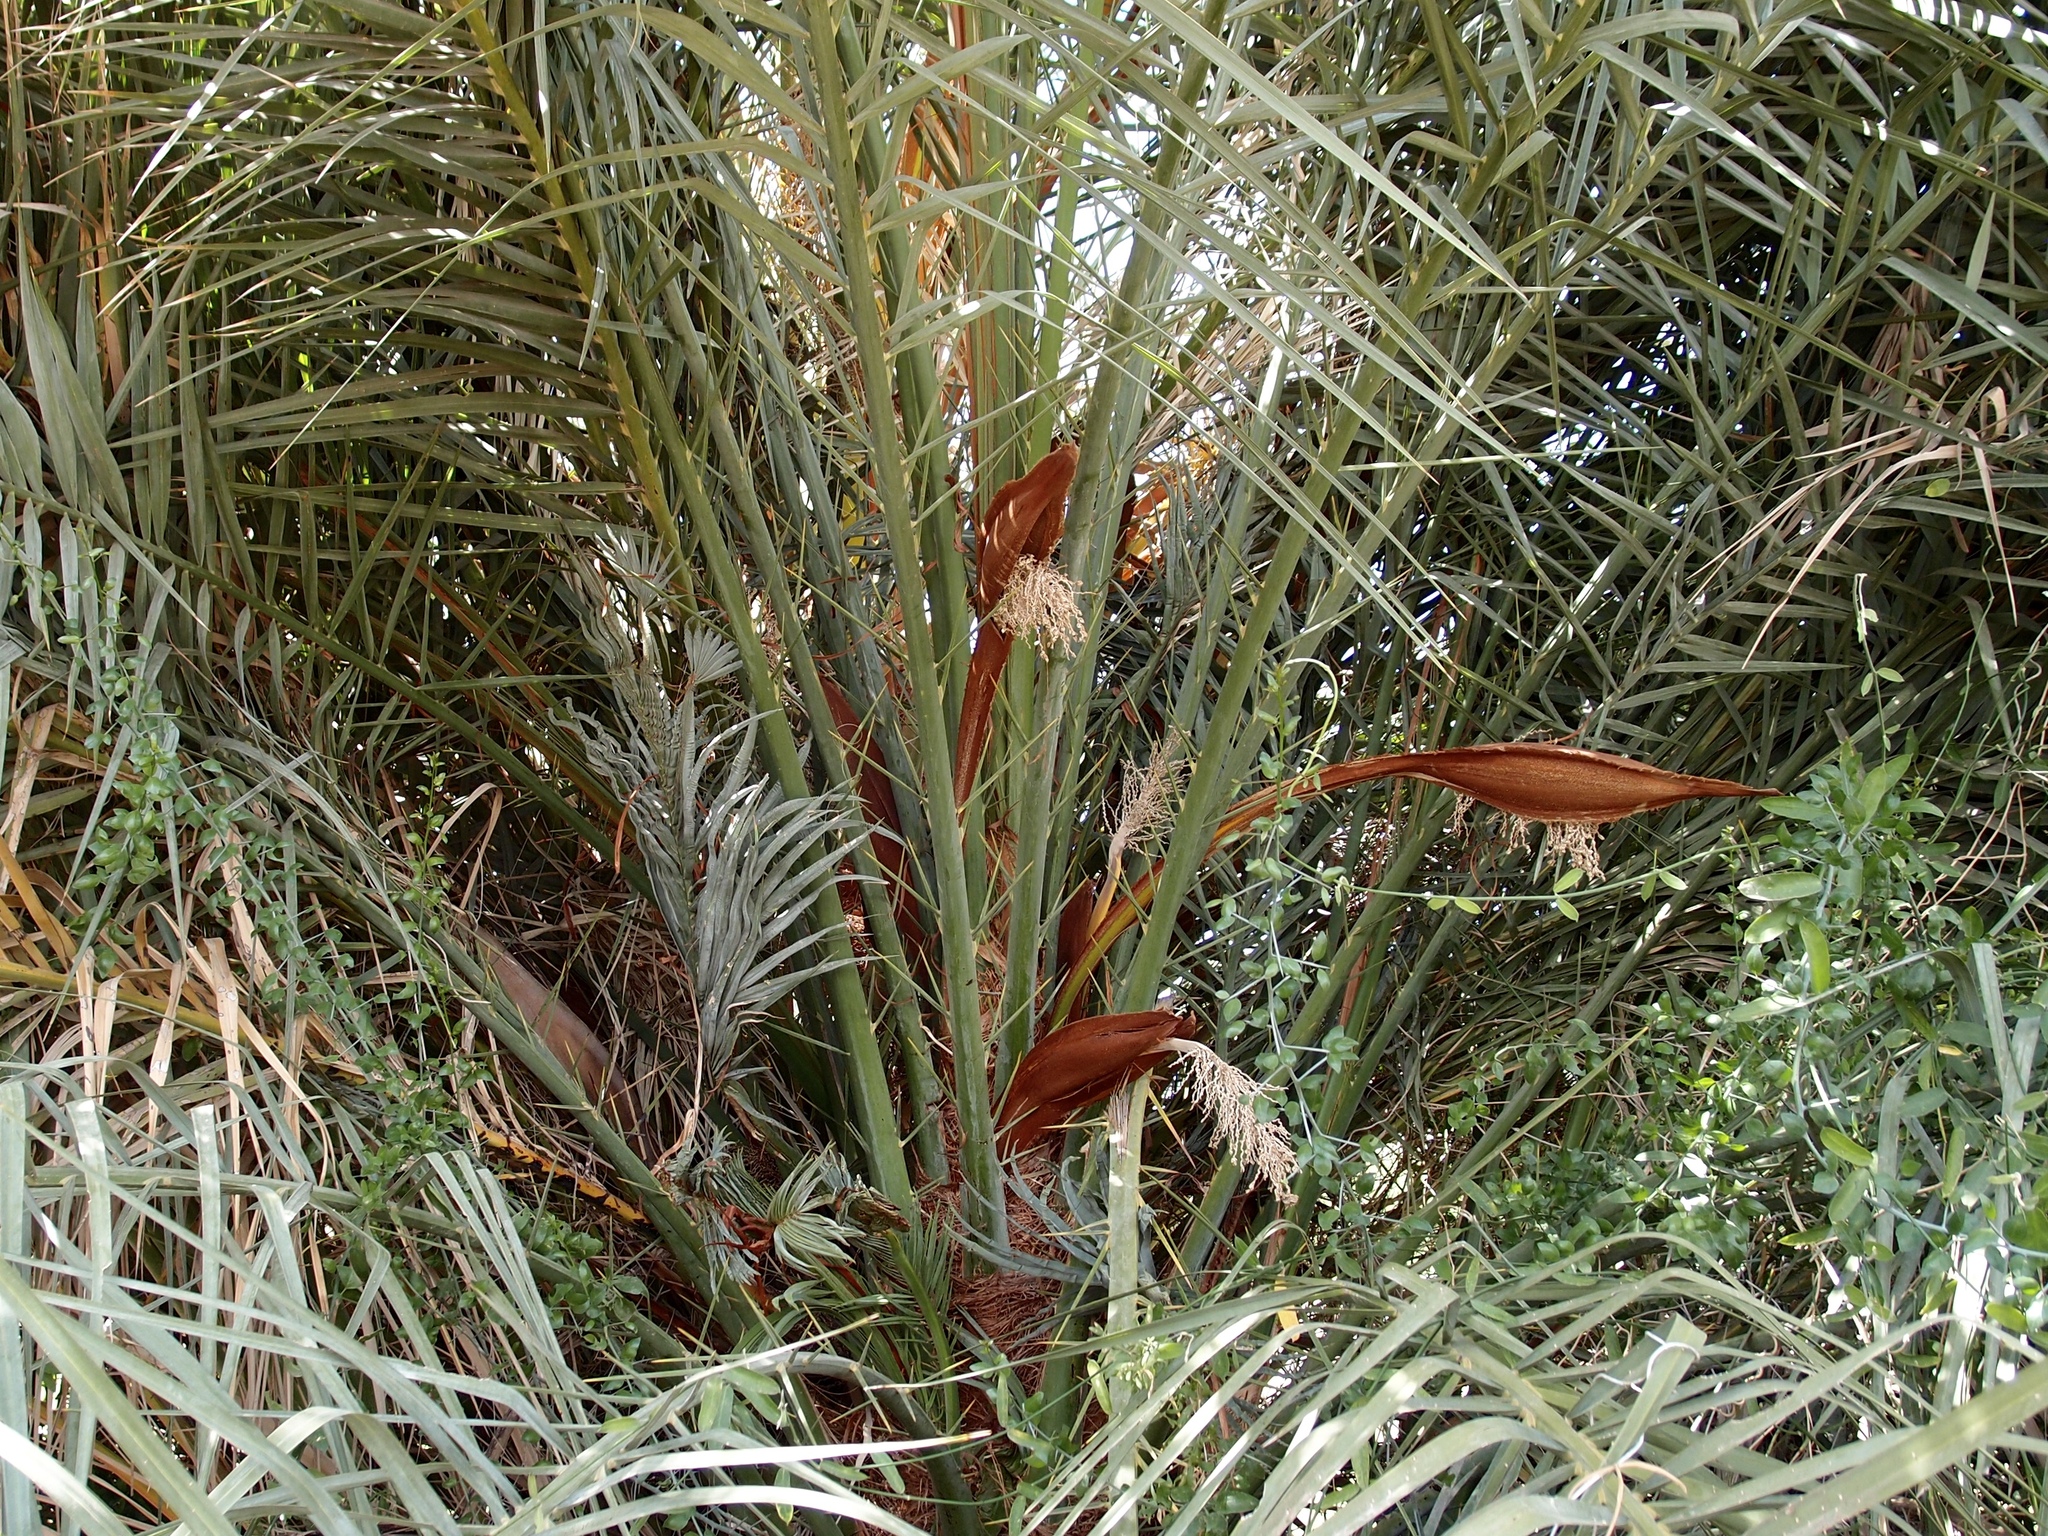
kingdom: Plantae
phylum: Tracheophyta
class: Liliopsida
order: Arecales
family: Arecaceae
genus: Phoenix
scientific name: Phoenix dactylifera
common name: Date palm
